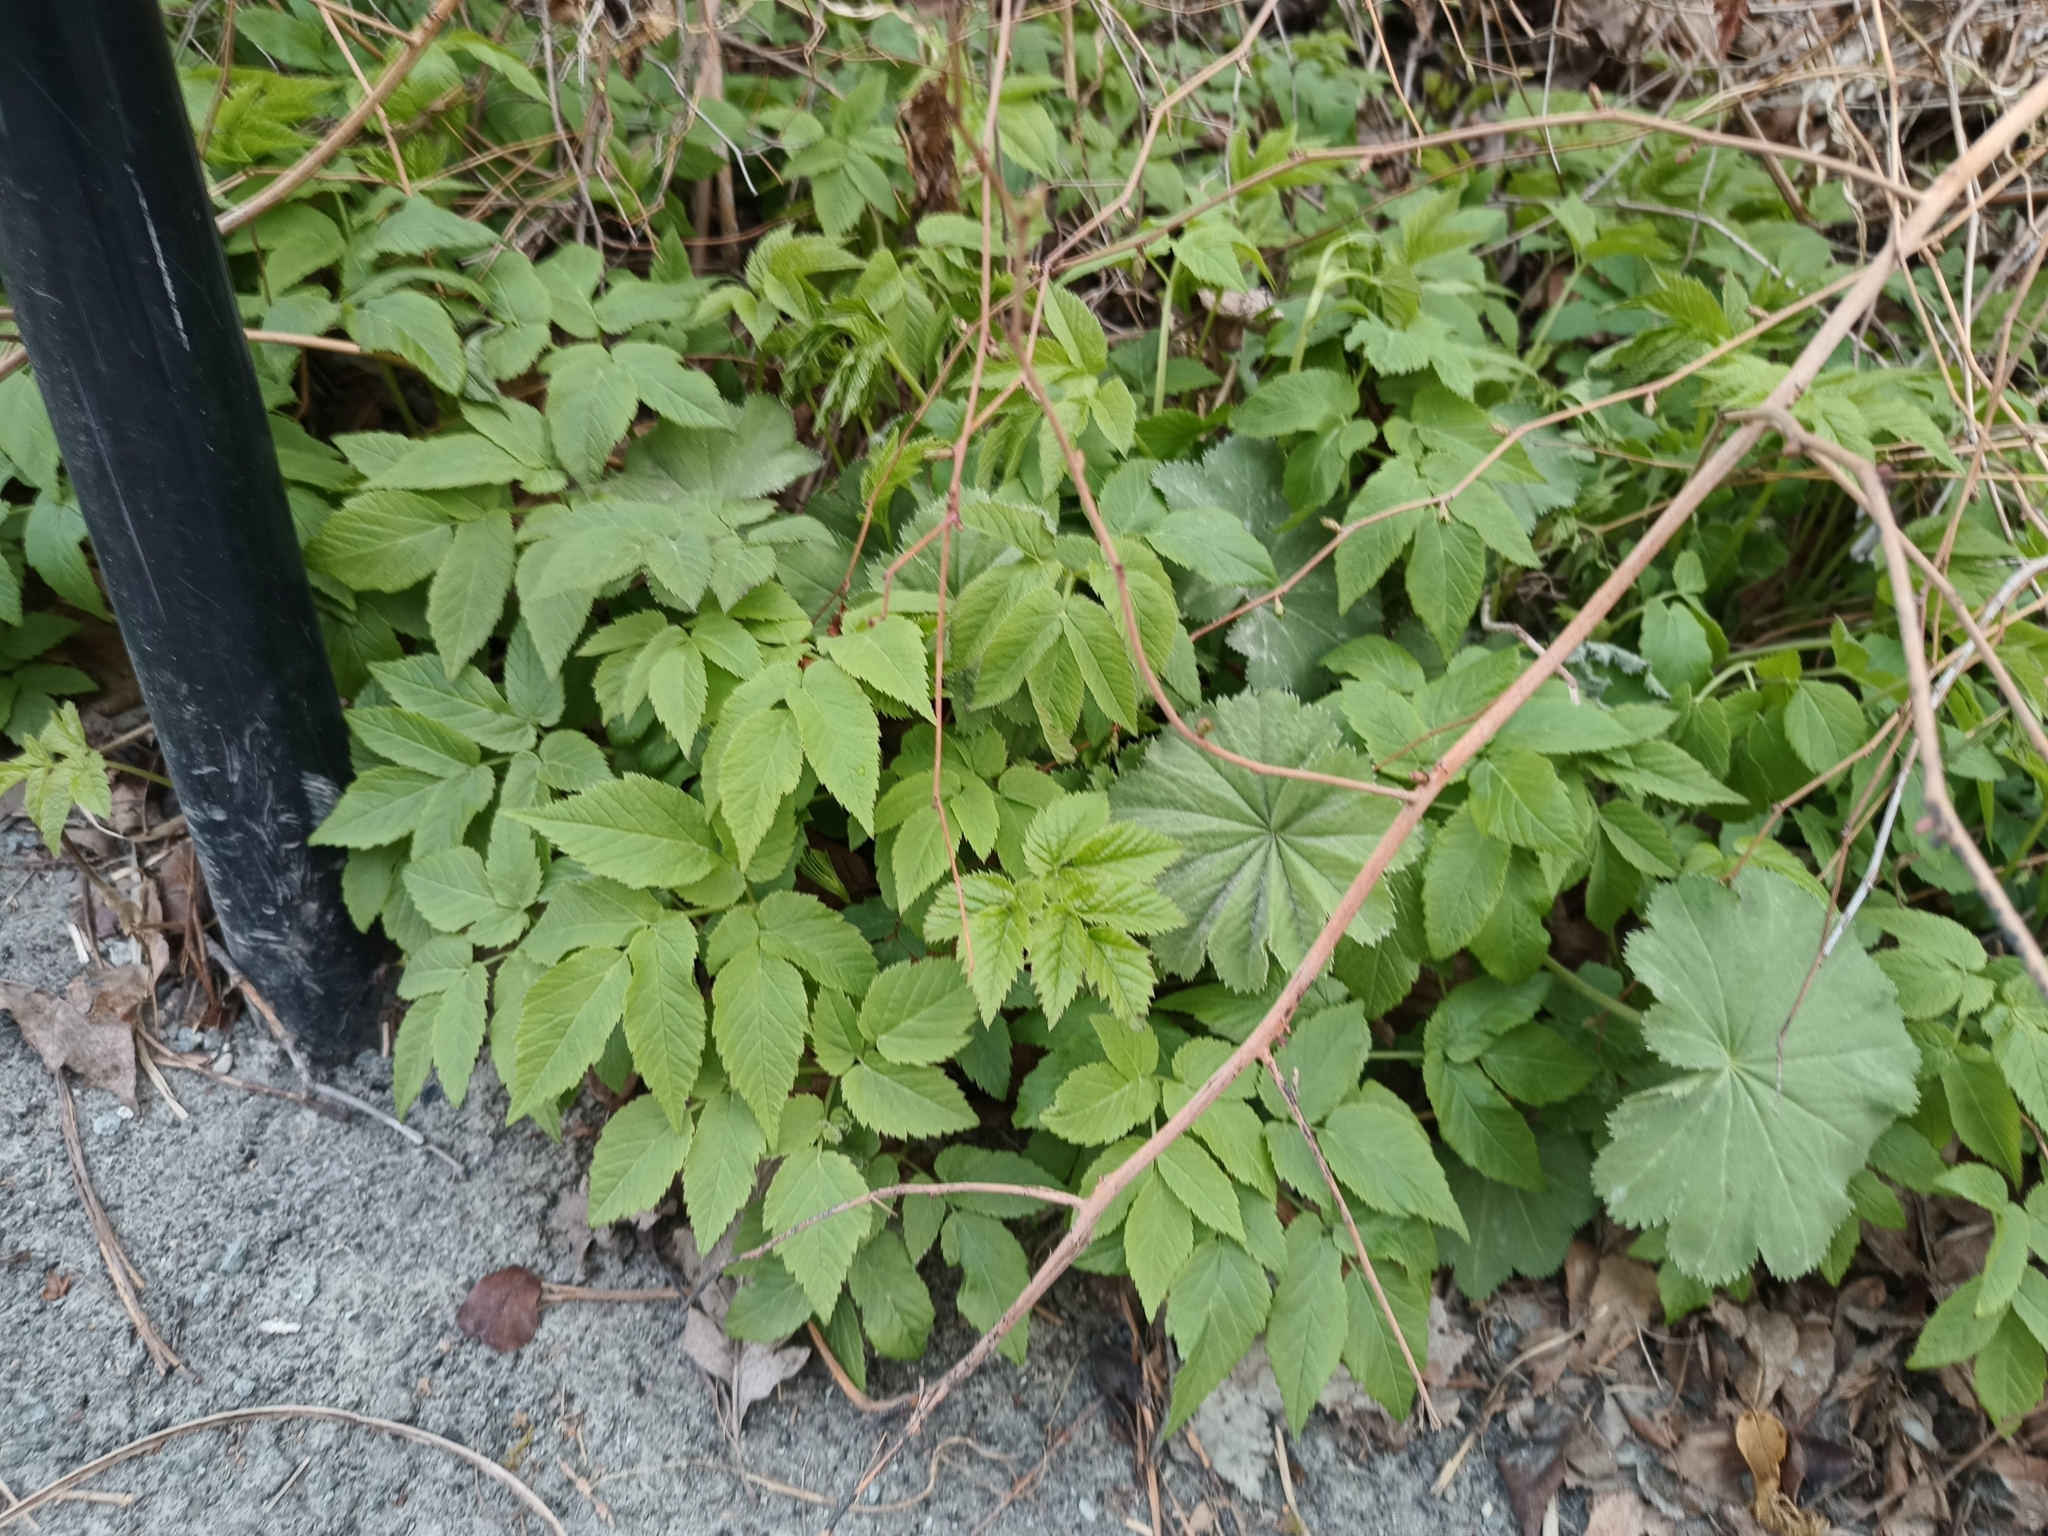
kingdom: Plantae
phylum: Tracheophyta
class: Magnoliopsida
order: Apiales
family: Apiaceae
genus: Aegopodium
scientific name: Aegopodium podagraria
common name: Ground-elder
